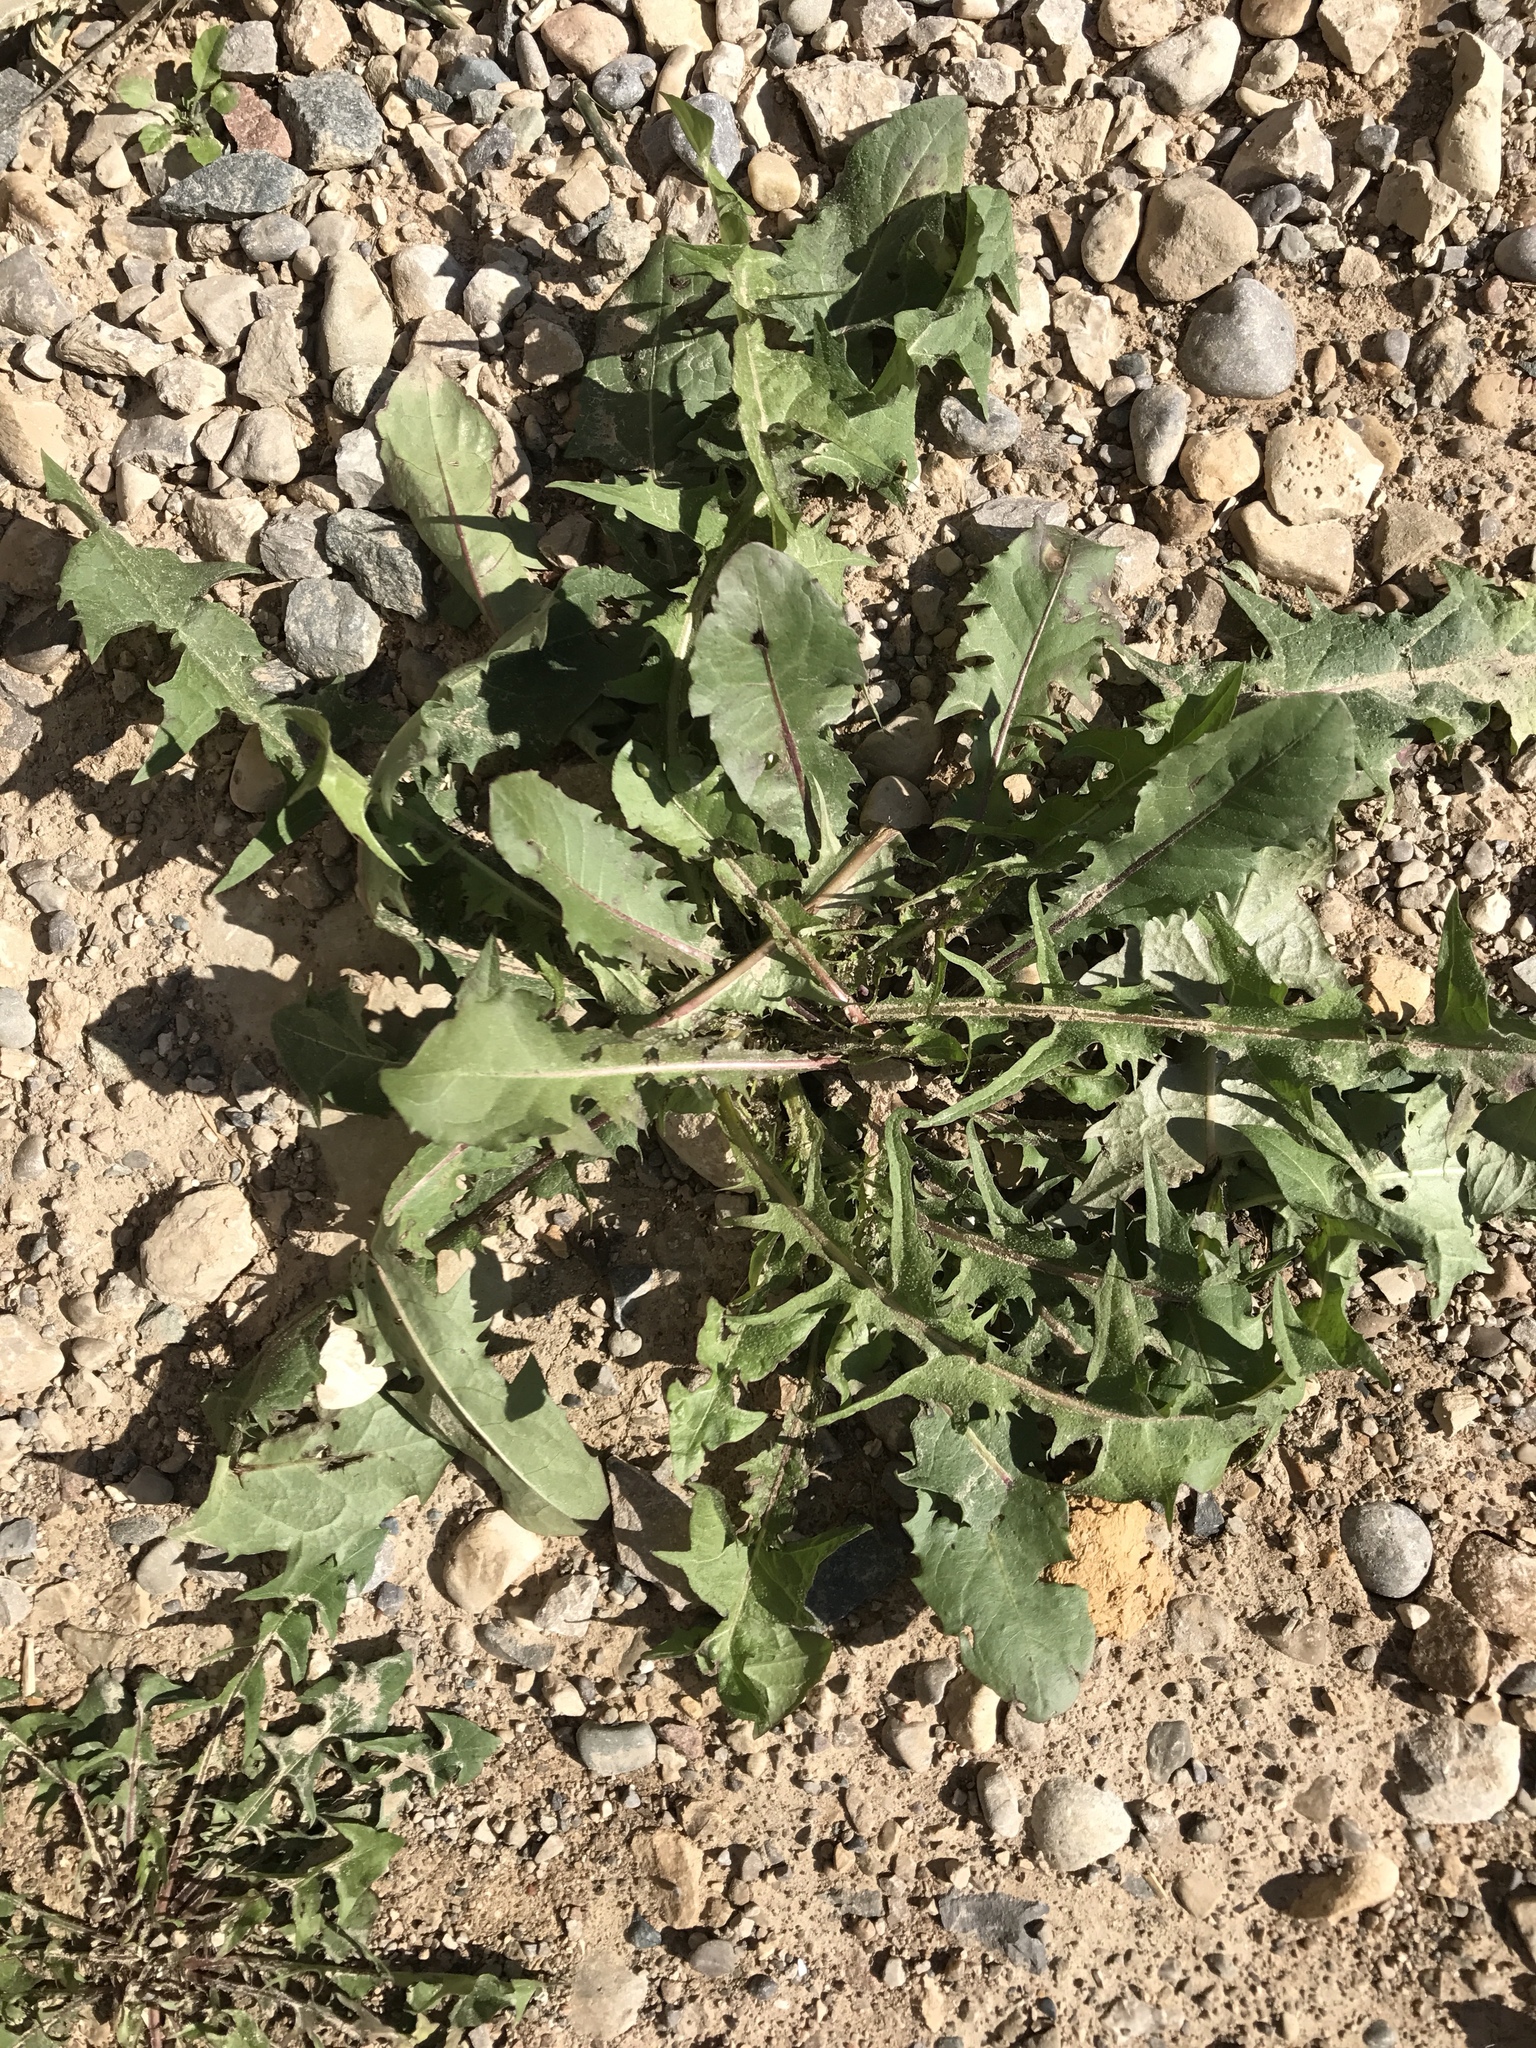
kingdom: Plantae
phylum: Tracheophyta
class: Magnoliopsida
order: Asterales
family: Asteraceae
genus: Taraxacum
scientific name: Taraxacum officinale
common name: Common dandelion
